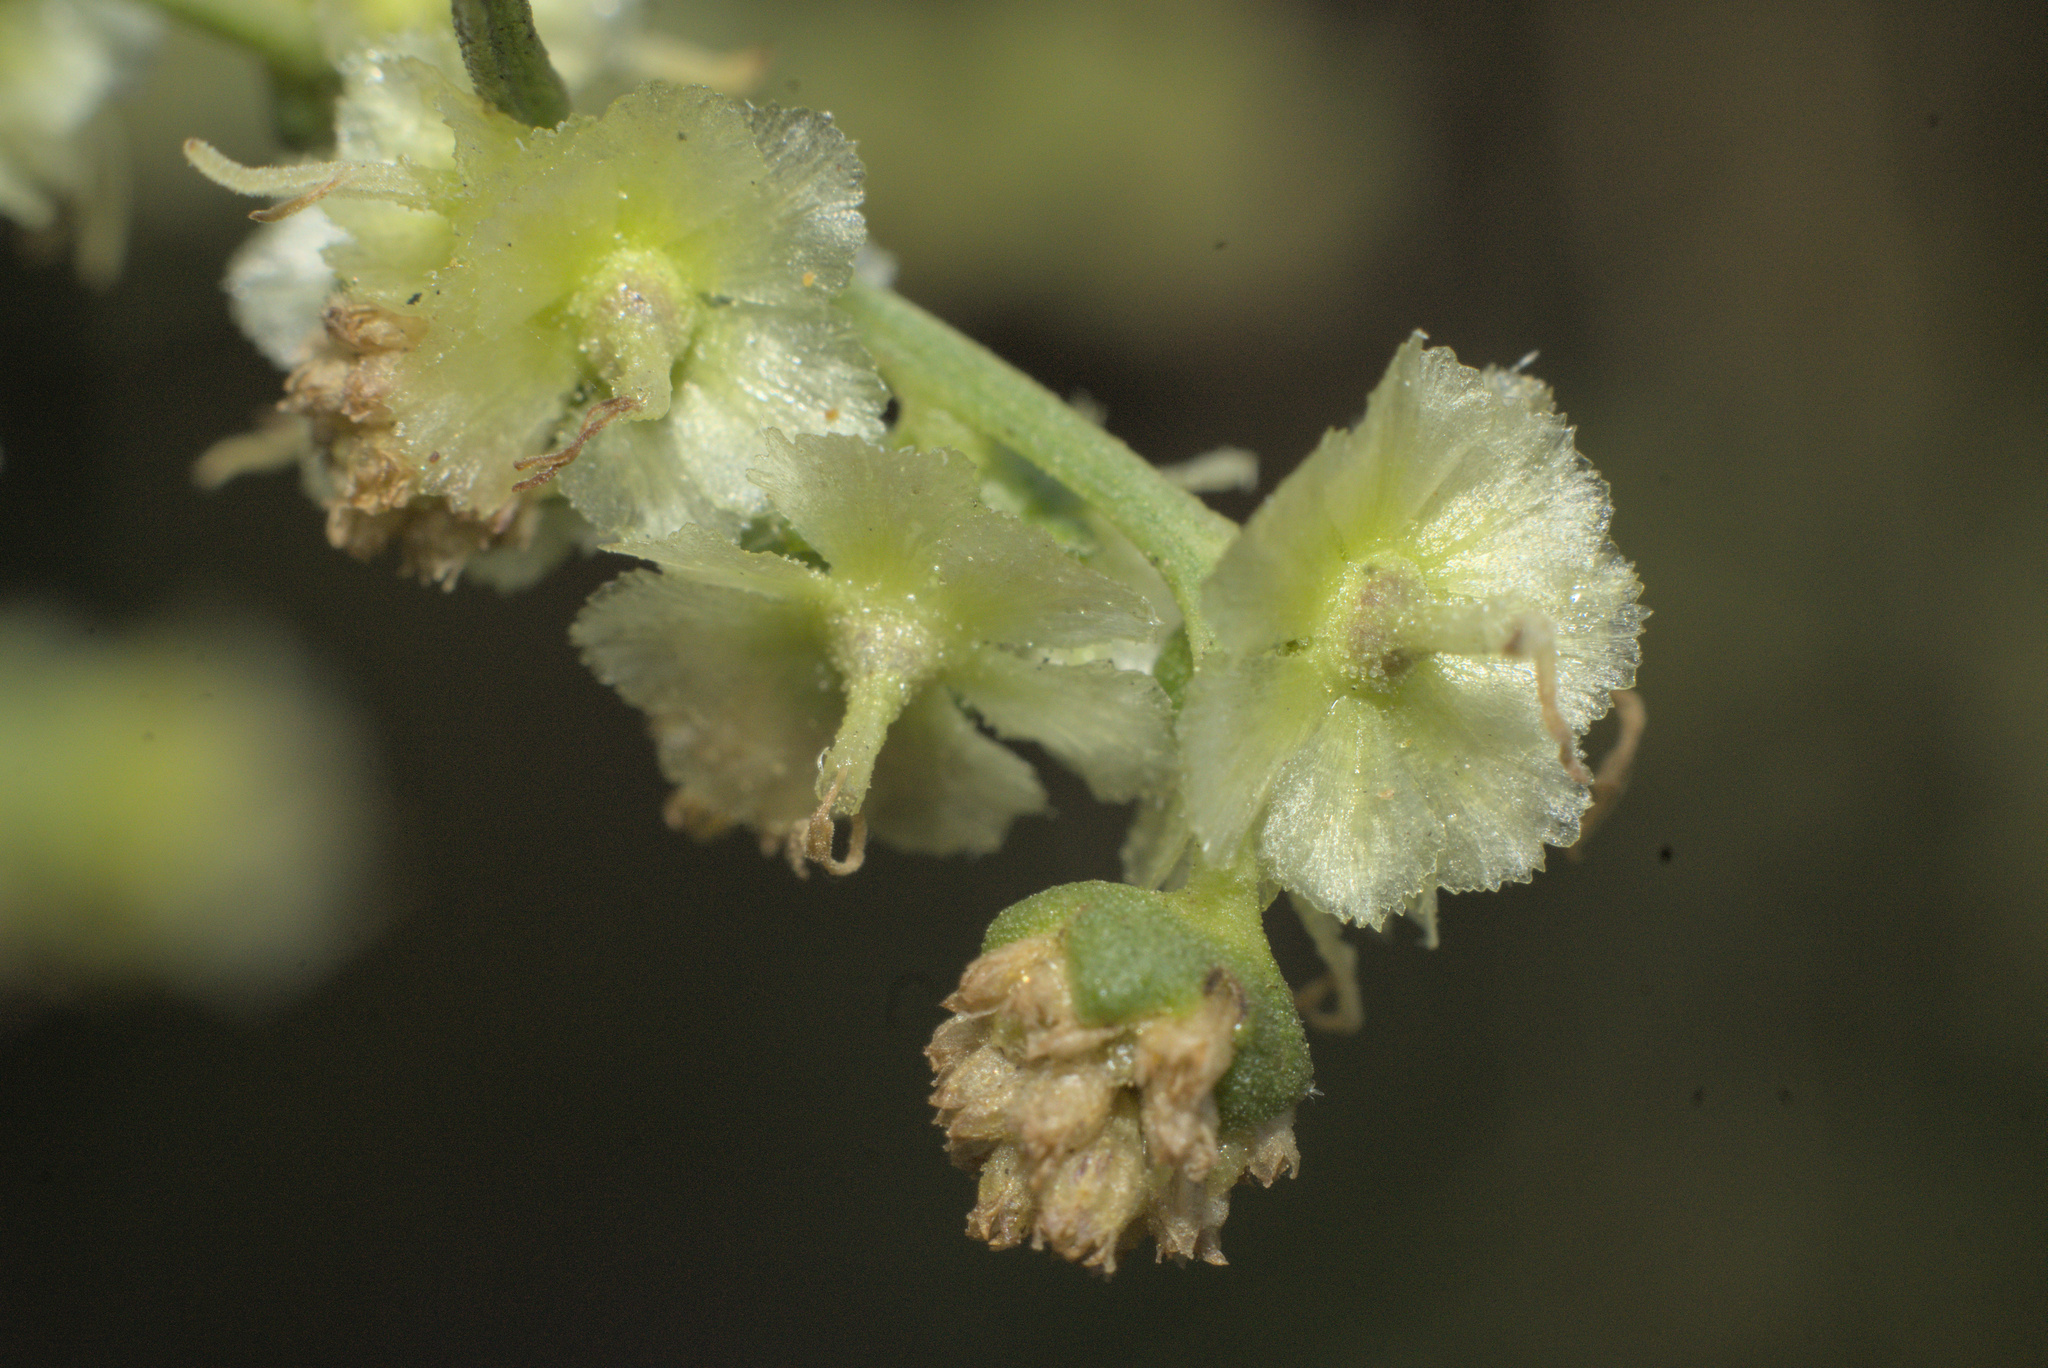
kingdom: Plantae
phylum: Tracheophyta
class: Magnoliopsida
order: Asterales
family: Asteraceae
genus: Ambrosia
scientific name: Ambrosia monogyra
